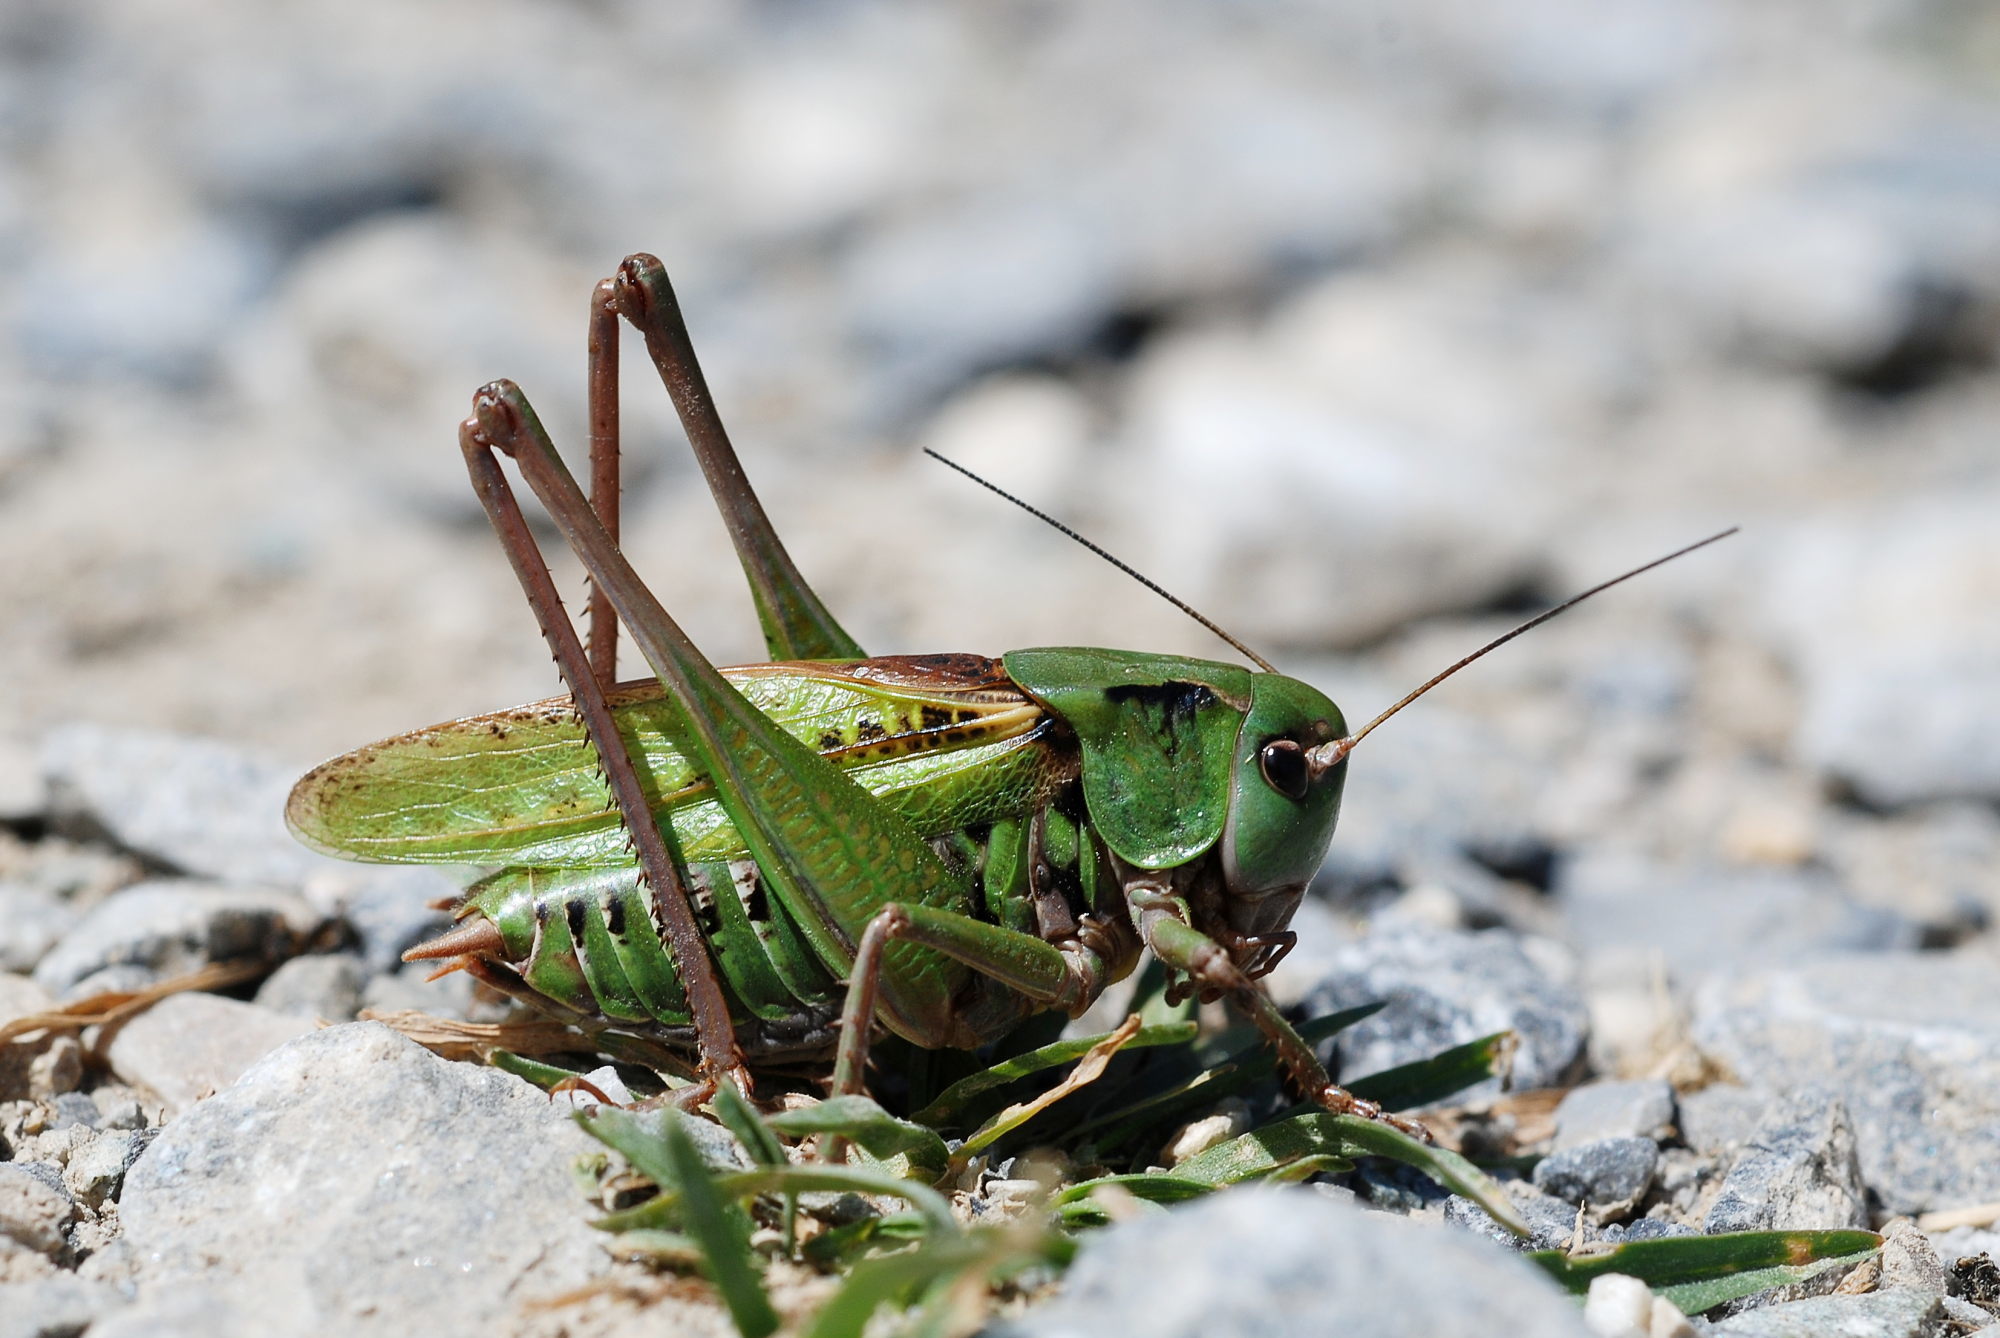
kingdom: Animalia
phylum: Arthropoda
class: Insecta
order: Orthoptera
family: Tettigoniidae
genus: Decticus
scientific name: Decticus verrucivorus
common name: Wart-biter
